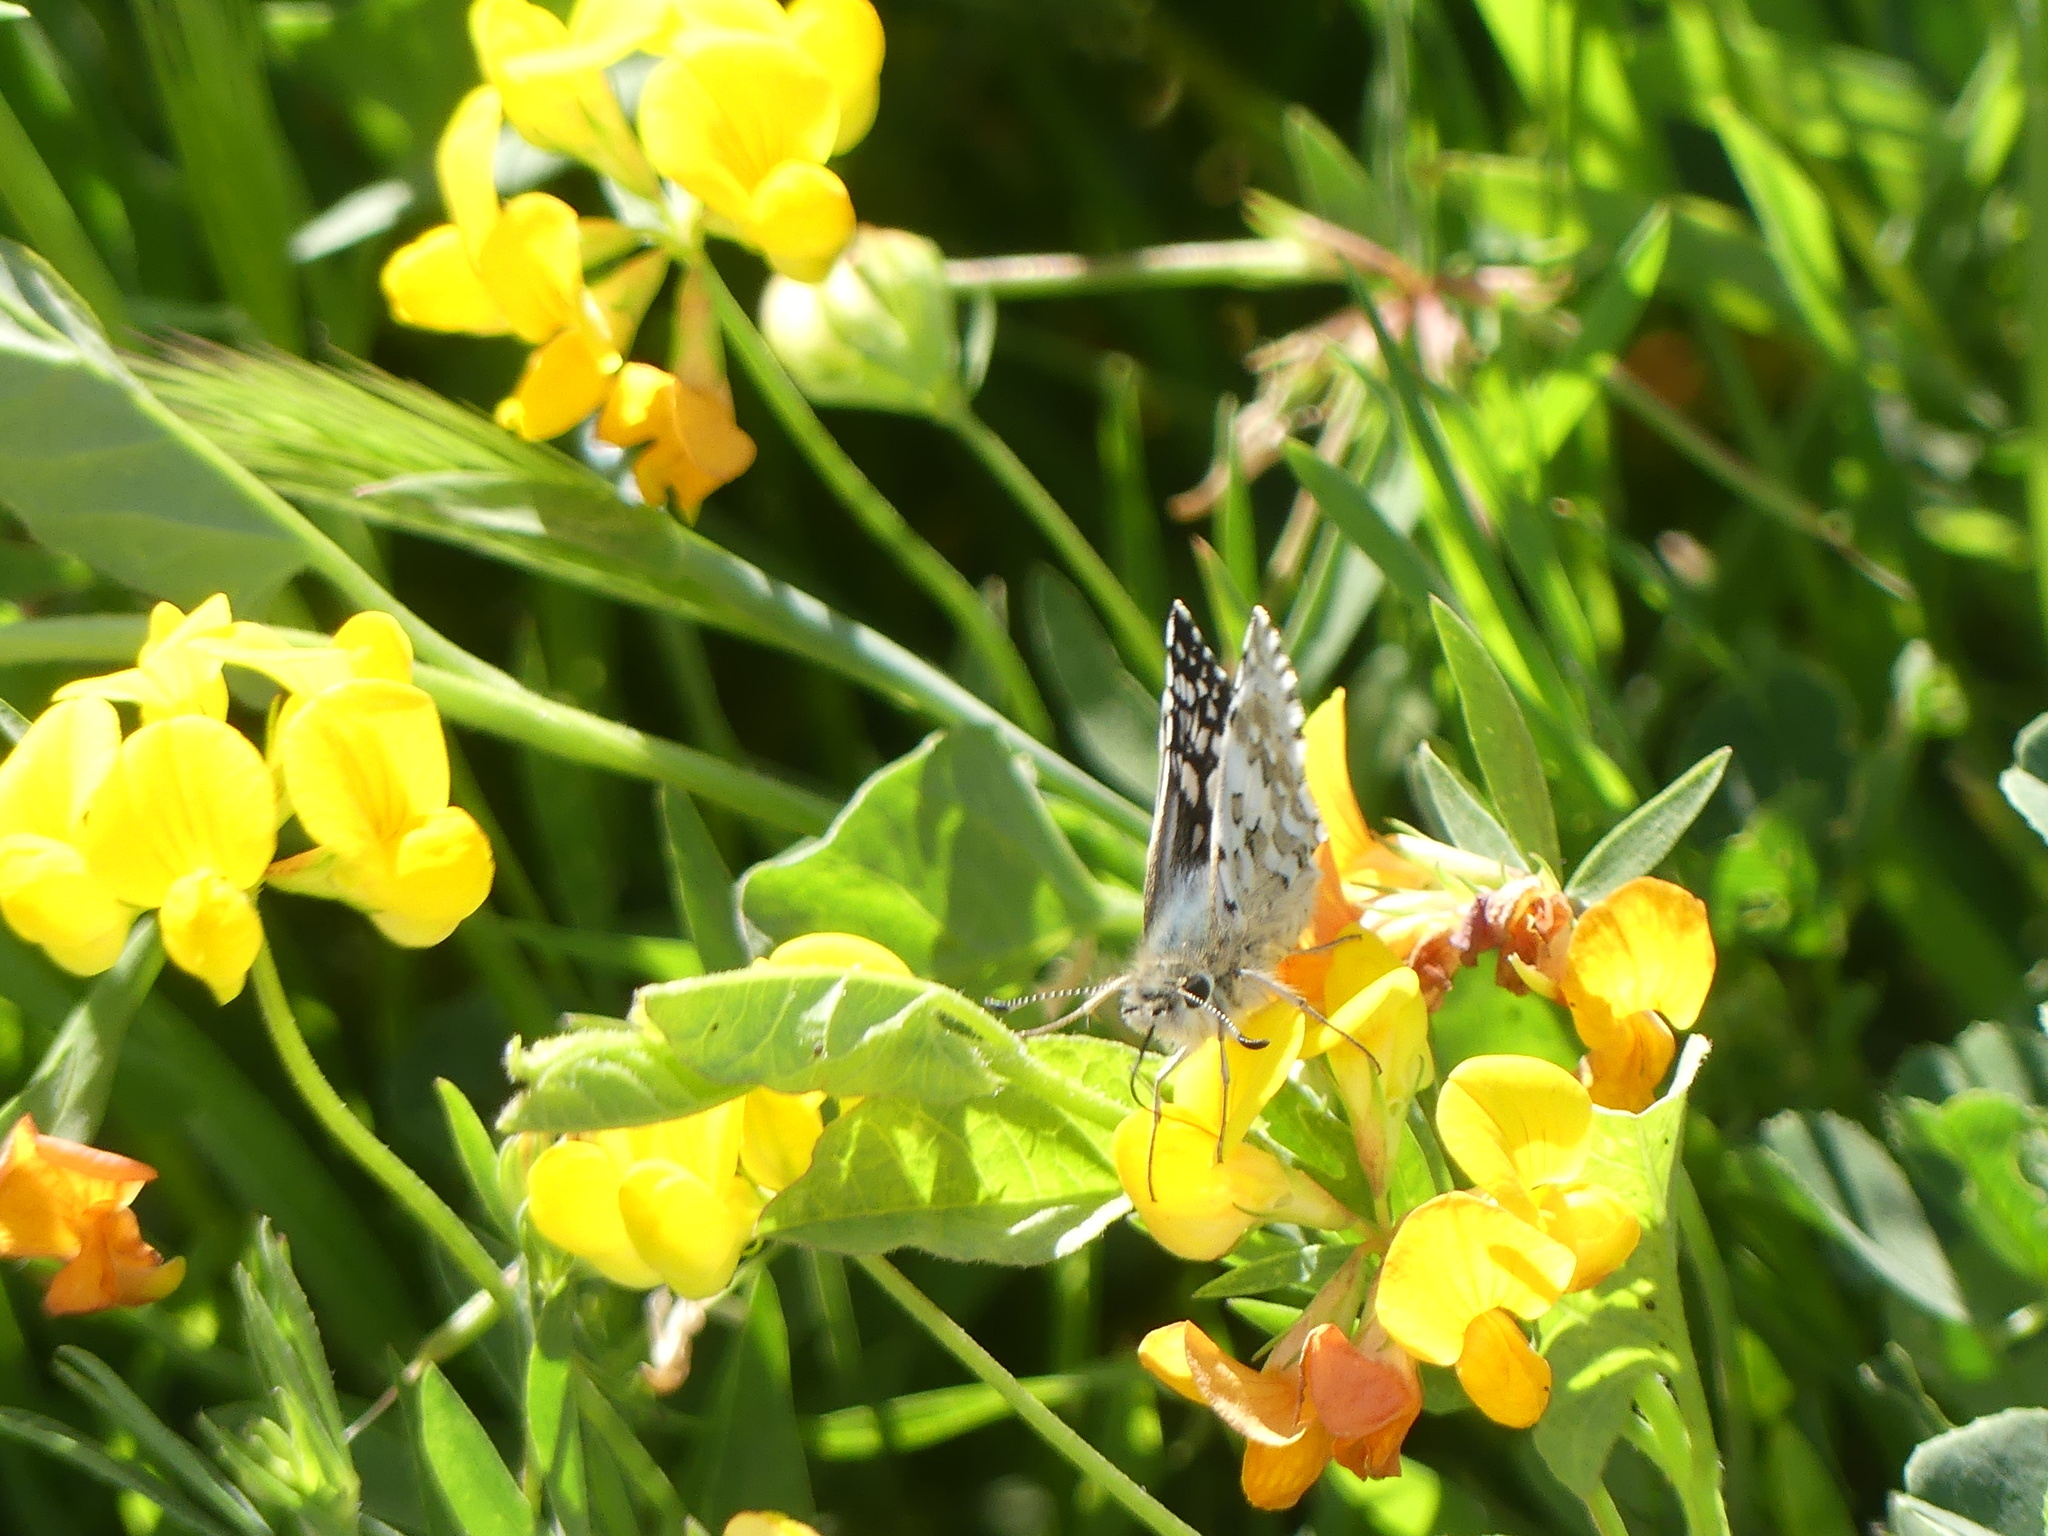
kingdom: Animalia
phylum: Arthropoda
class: Insecta
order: Lepidoptera
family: Hesperiidae
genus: Burnsius
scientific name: Burnsius communis
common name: Common checkered-skipper
